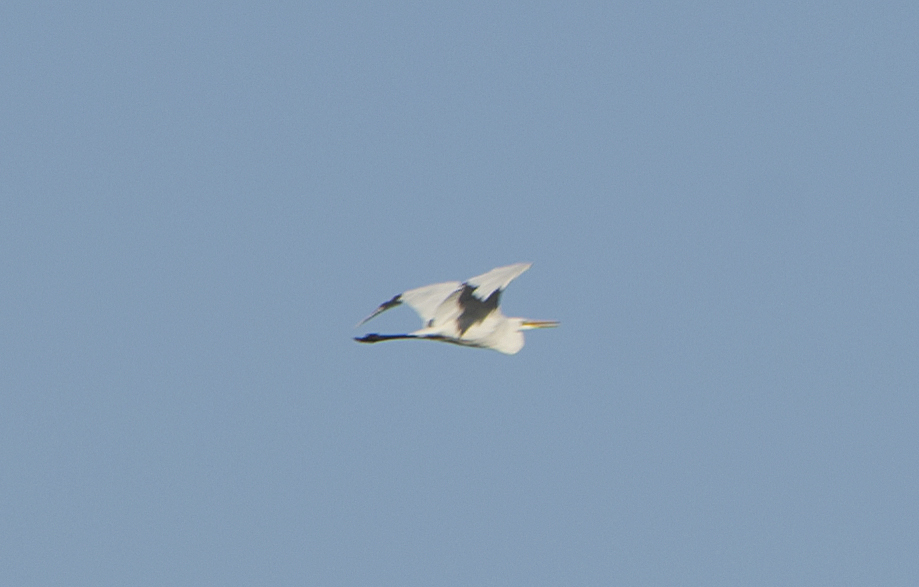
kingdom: Animalia
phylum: Chordata
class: Aves
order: Pelecaniformes
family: Ardeidae
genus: Ardea
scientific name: Ardea alba
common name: Great egret
